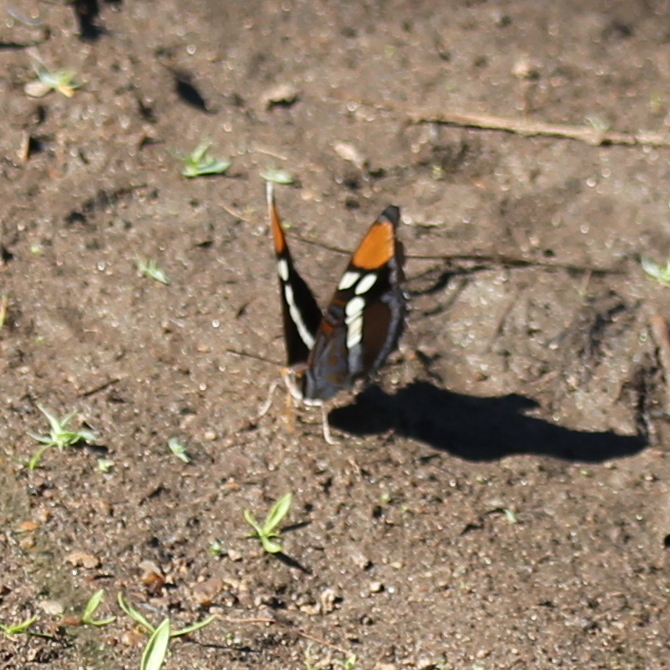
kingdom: Animalia
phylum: Arthropoda
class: Insecta
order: Lepidoptera
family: Nymphalidae
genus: Limenitis
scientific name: Limenitis bredowii
